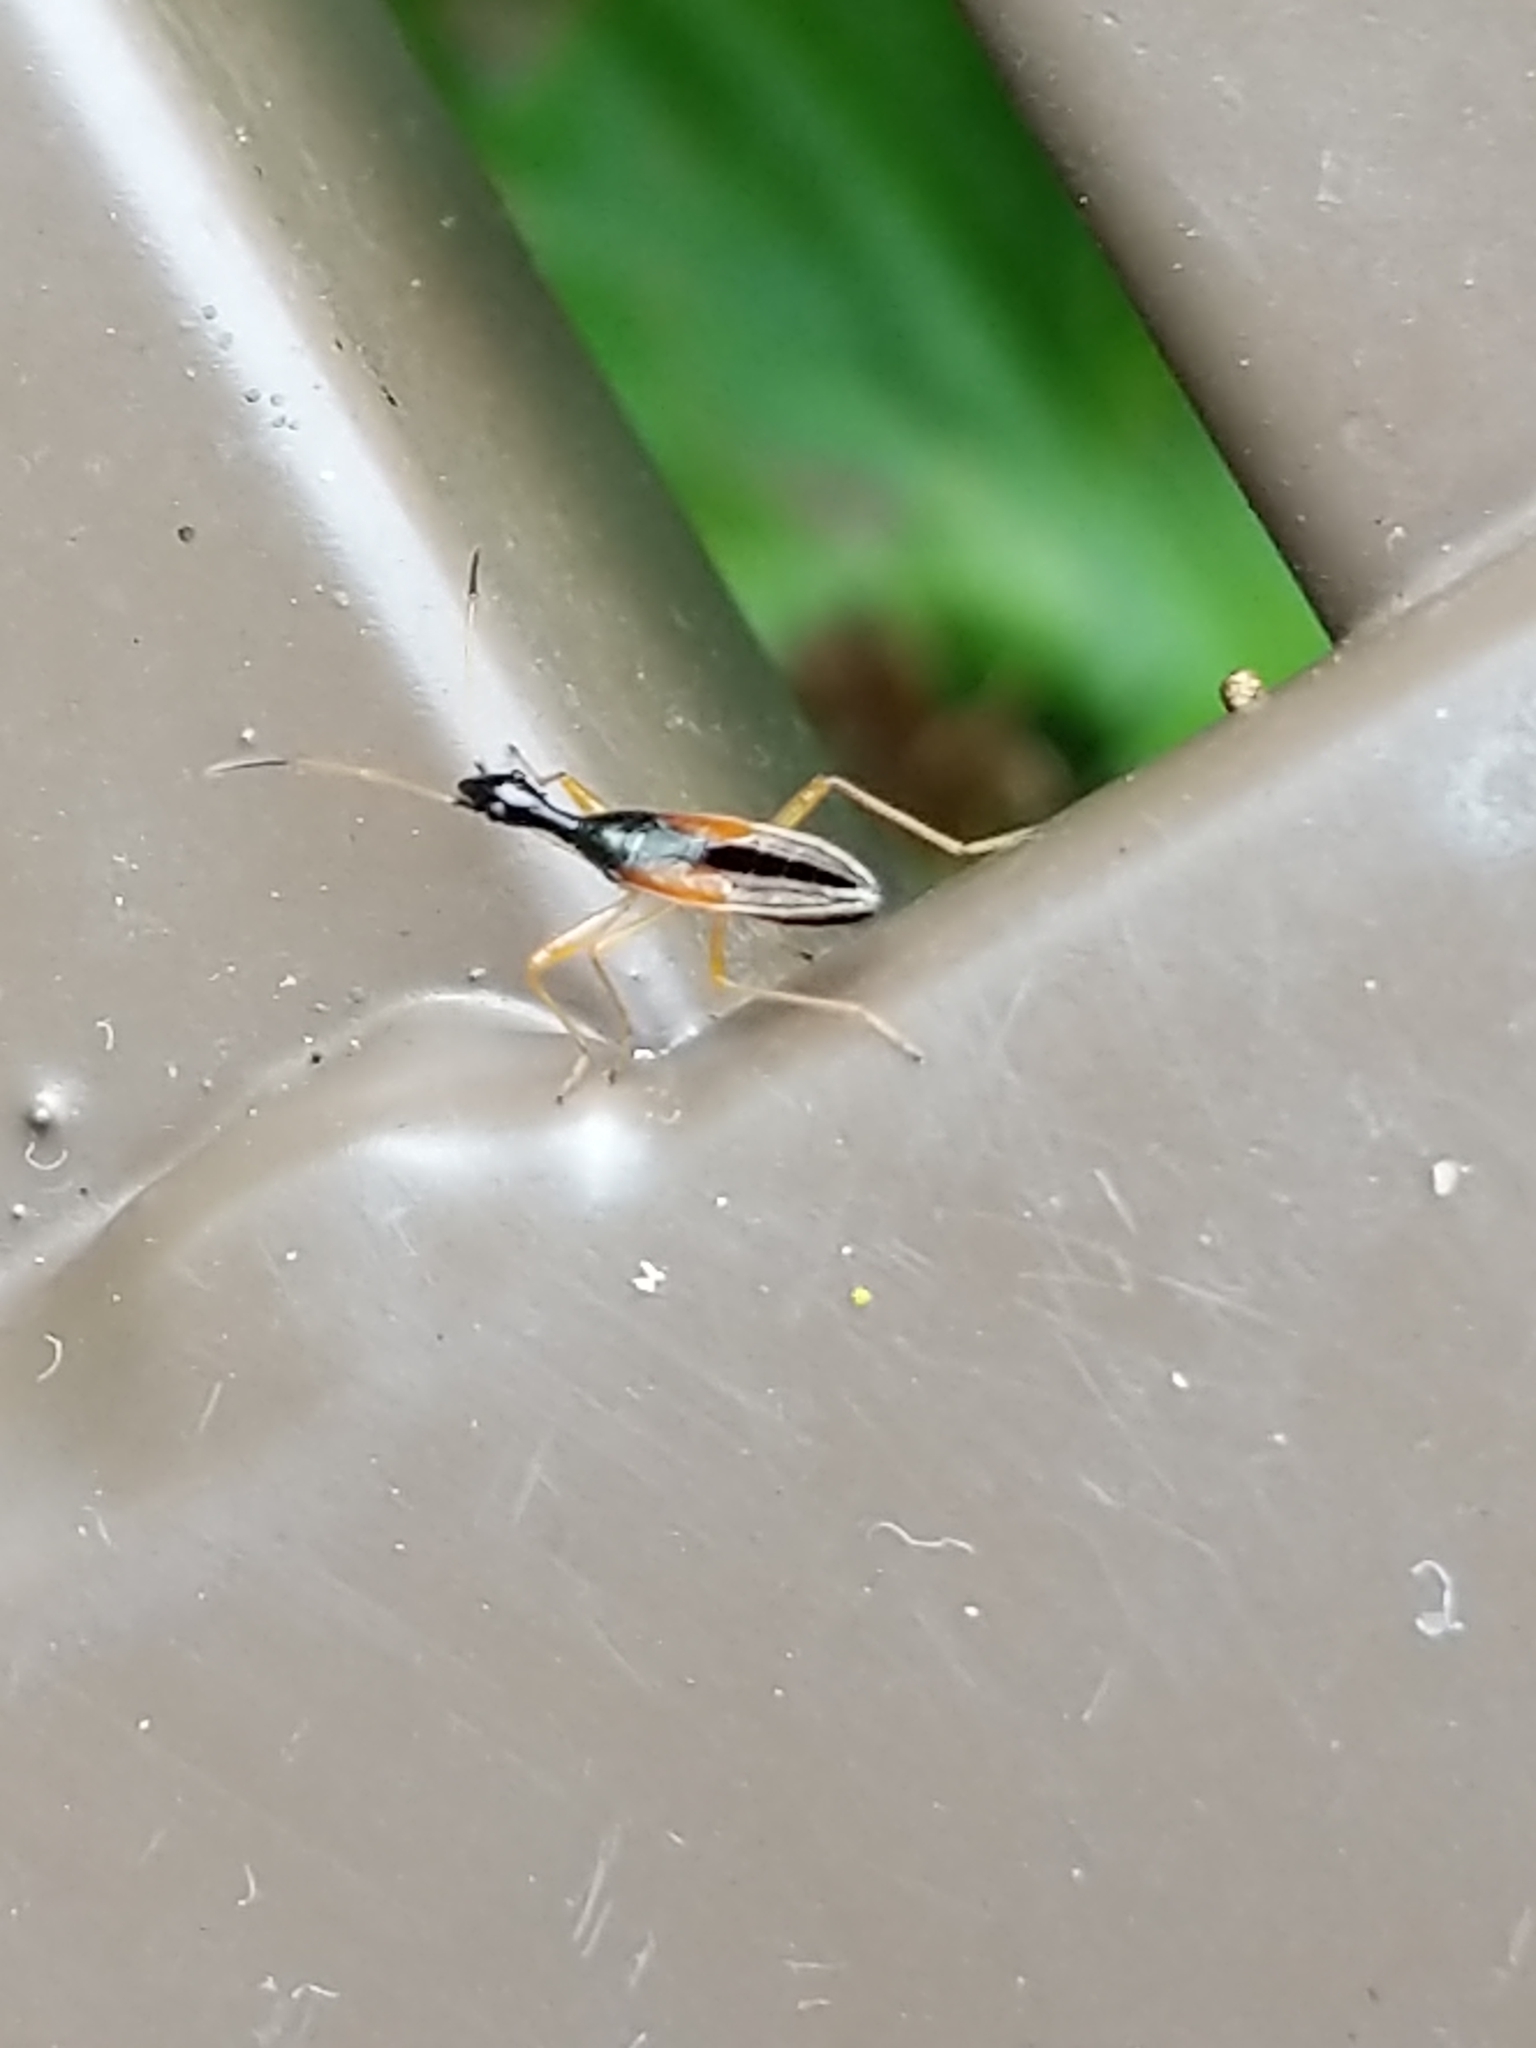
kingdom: Animalia
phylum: Arthropoda
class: Insecta
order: Hemiptera
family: Rhyparochromidae
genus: Myodocha
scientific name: Myodocha serripes
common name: Long-necked seed bug
